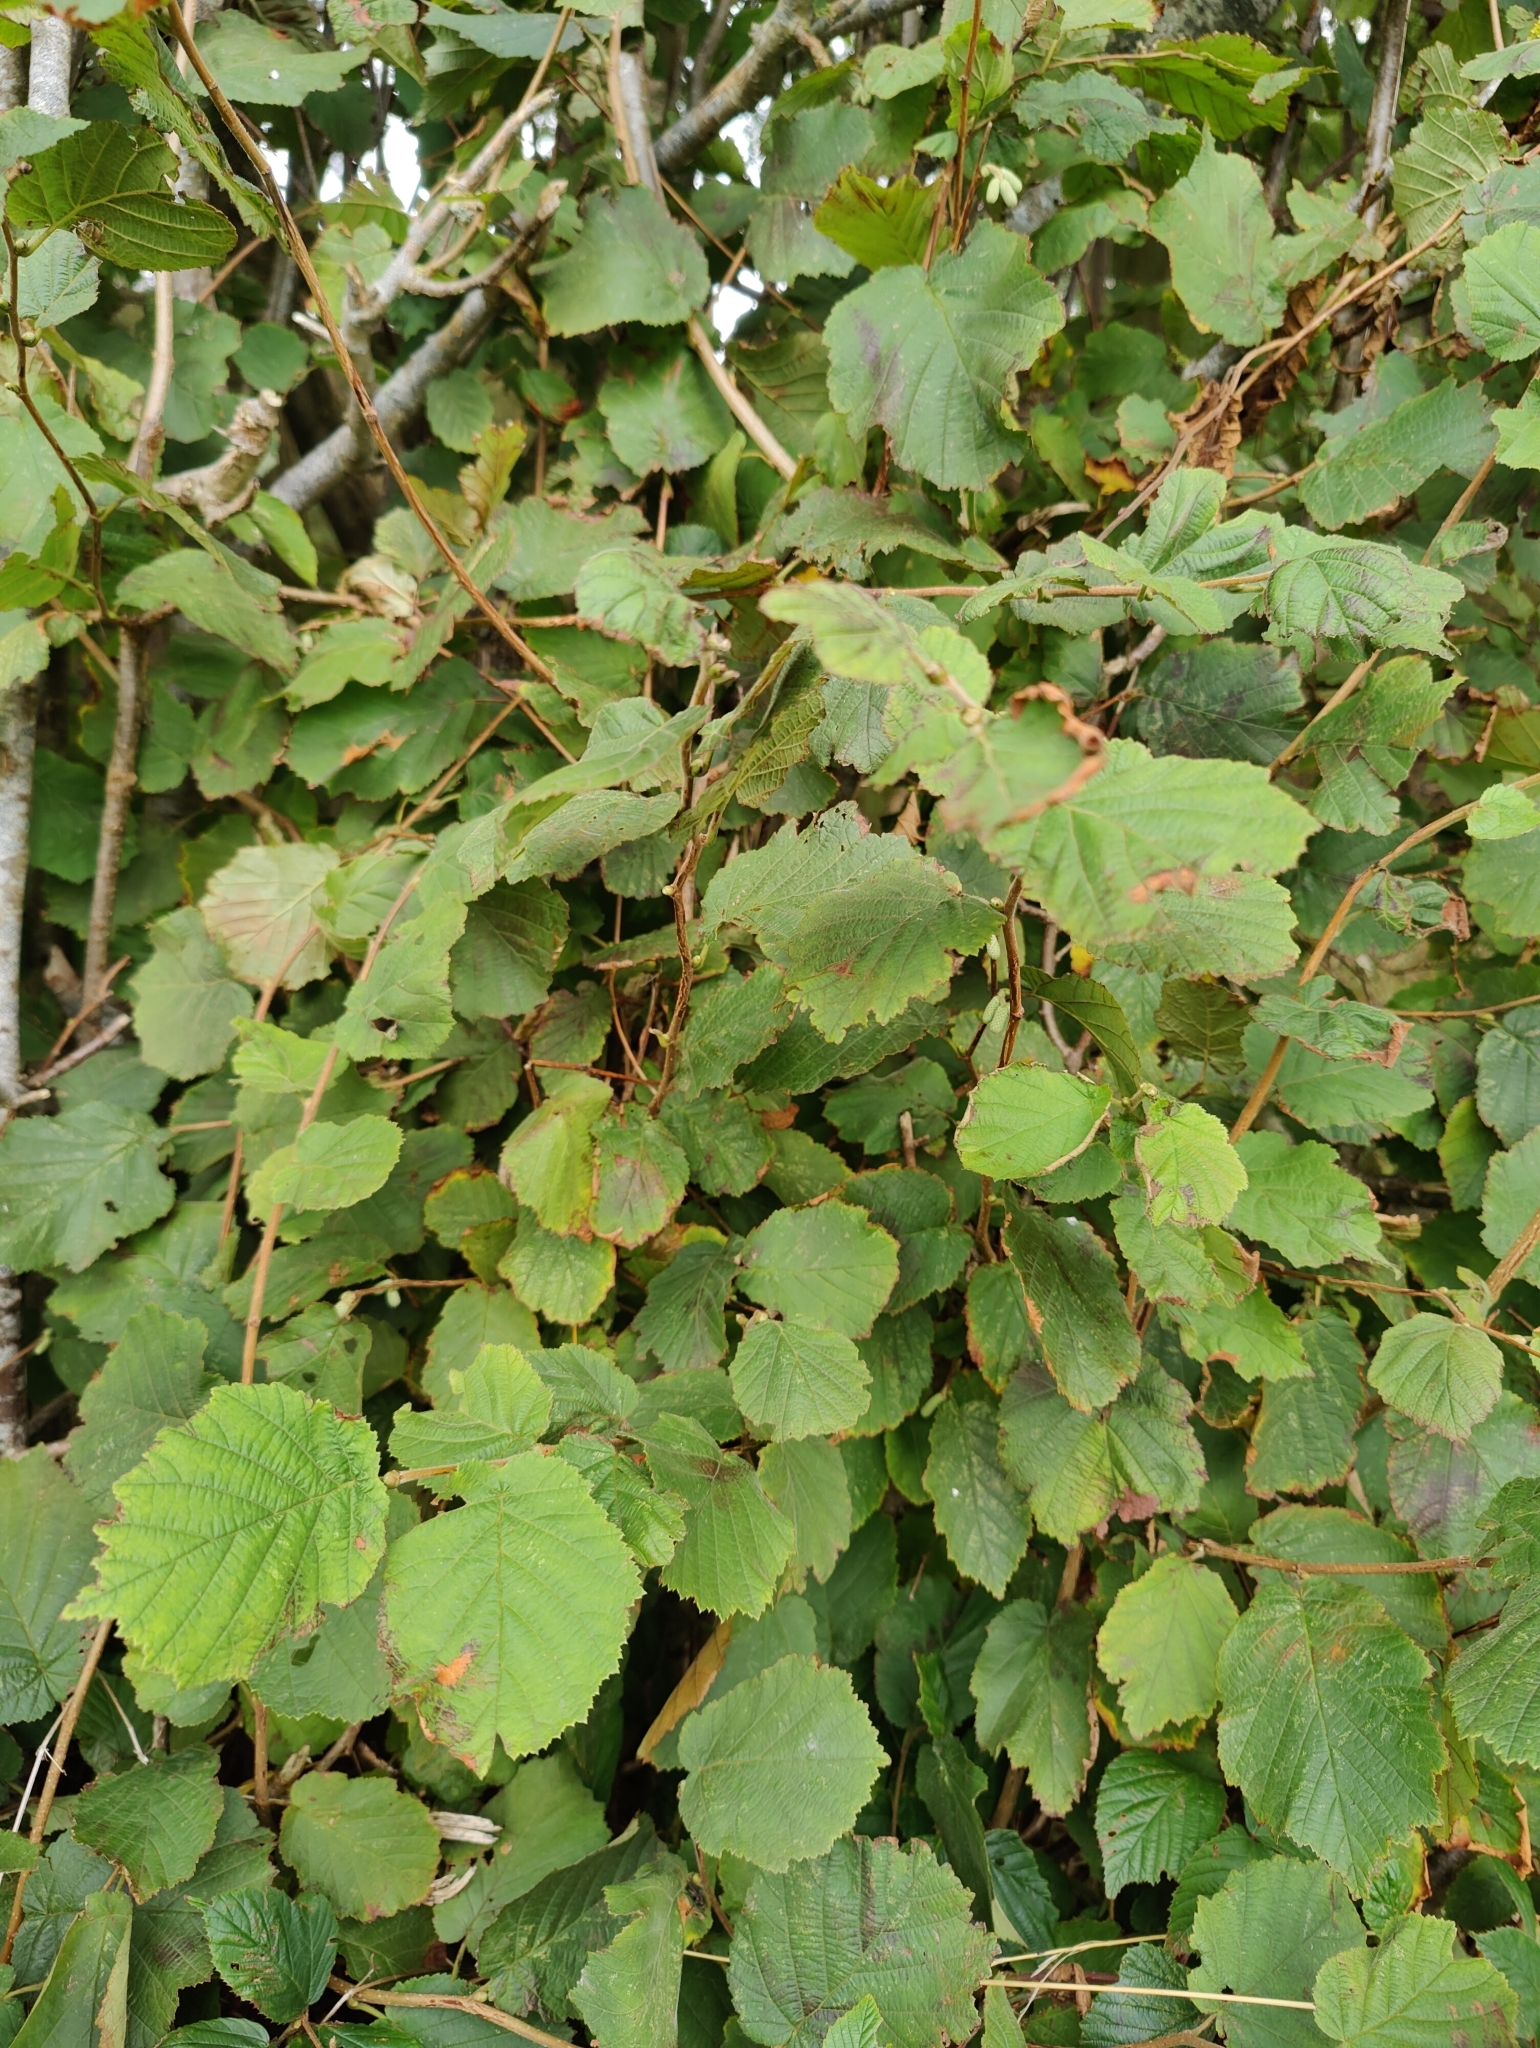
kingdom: Plantae
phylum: Tracheophyta
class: Magnoliopsida
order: Fagales
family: Betulaceae
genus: Corylus
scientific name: Corylus avellana
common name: European hazel
